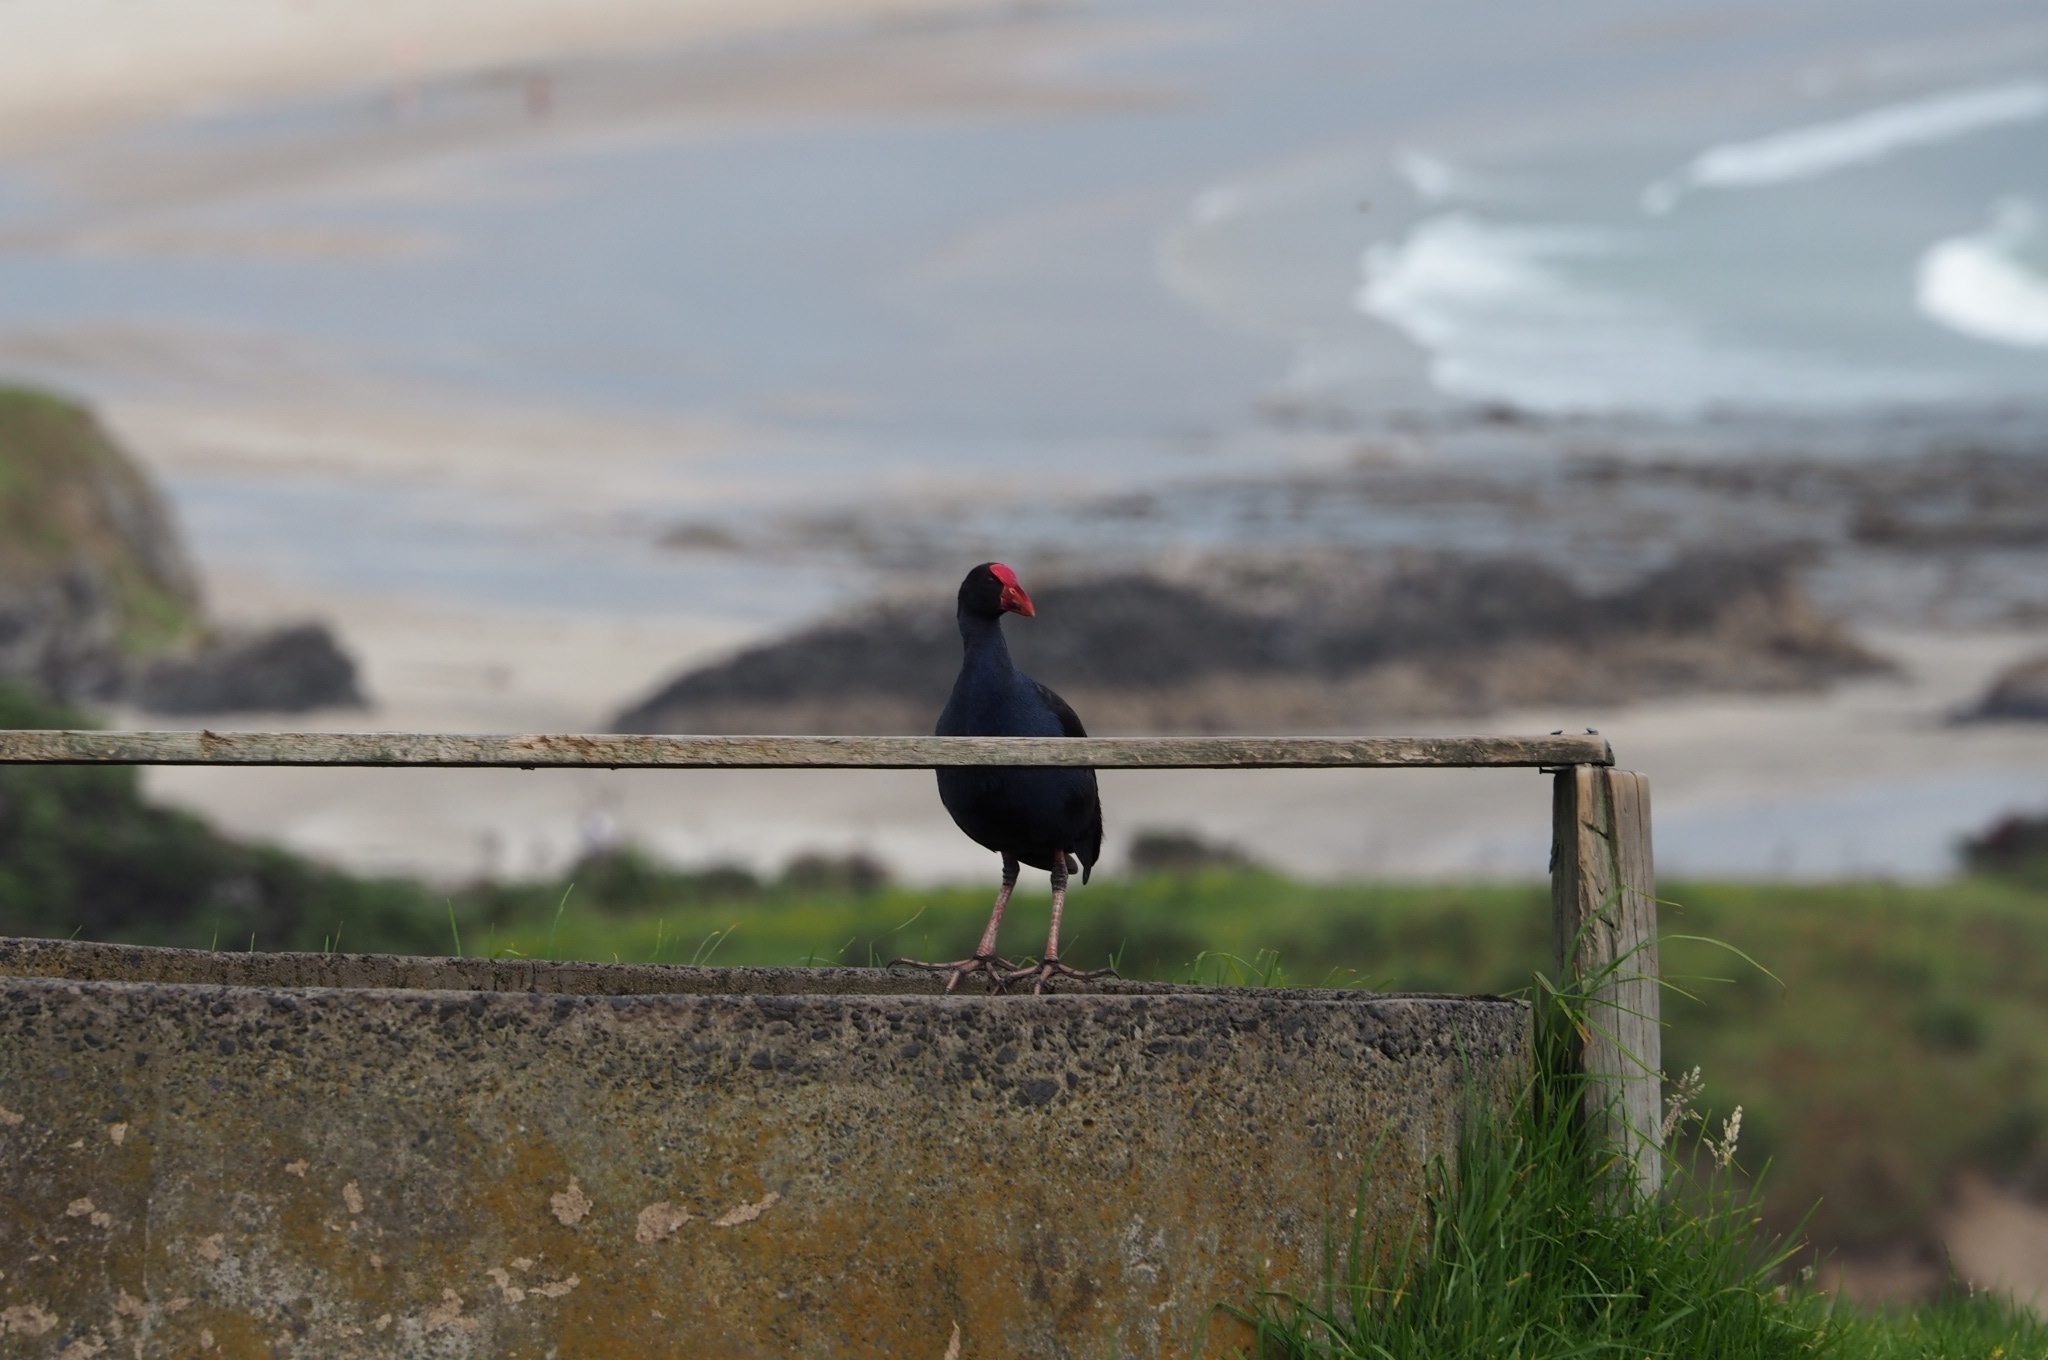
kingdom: Animalia
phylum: Chordata
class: Aves
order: Gruiformes
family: Rallidae
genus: Porphyrio
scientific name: Porphyrio melanotus
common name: Australasian swamphen
